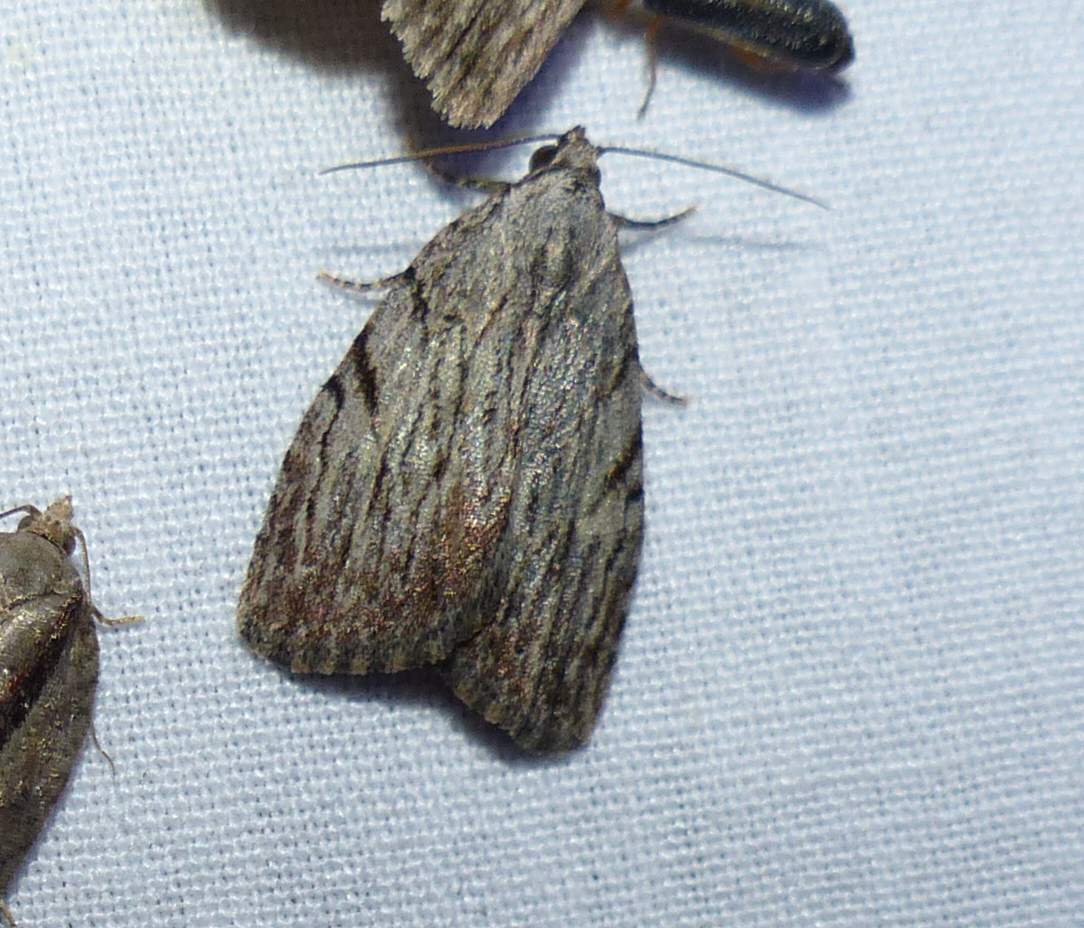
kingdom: Animalia
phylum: Arthropoda
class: Insecta
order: Lepidoptera
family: Noctuidae
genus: Balsa
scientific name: Balsa tristrigella
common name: Three-lined balsa moth
